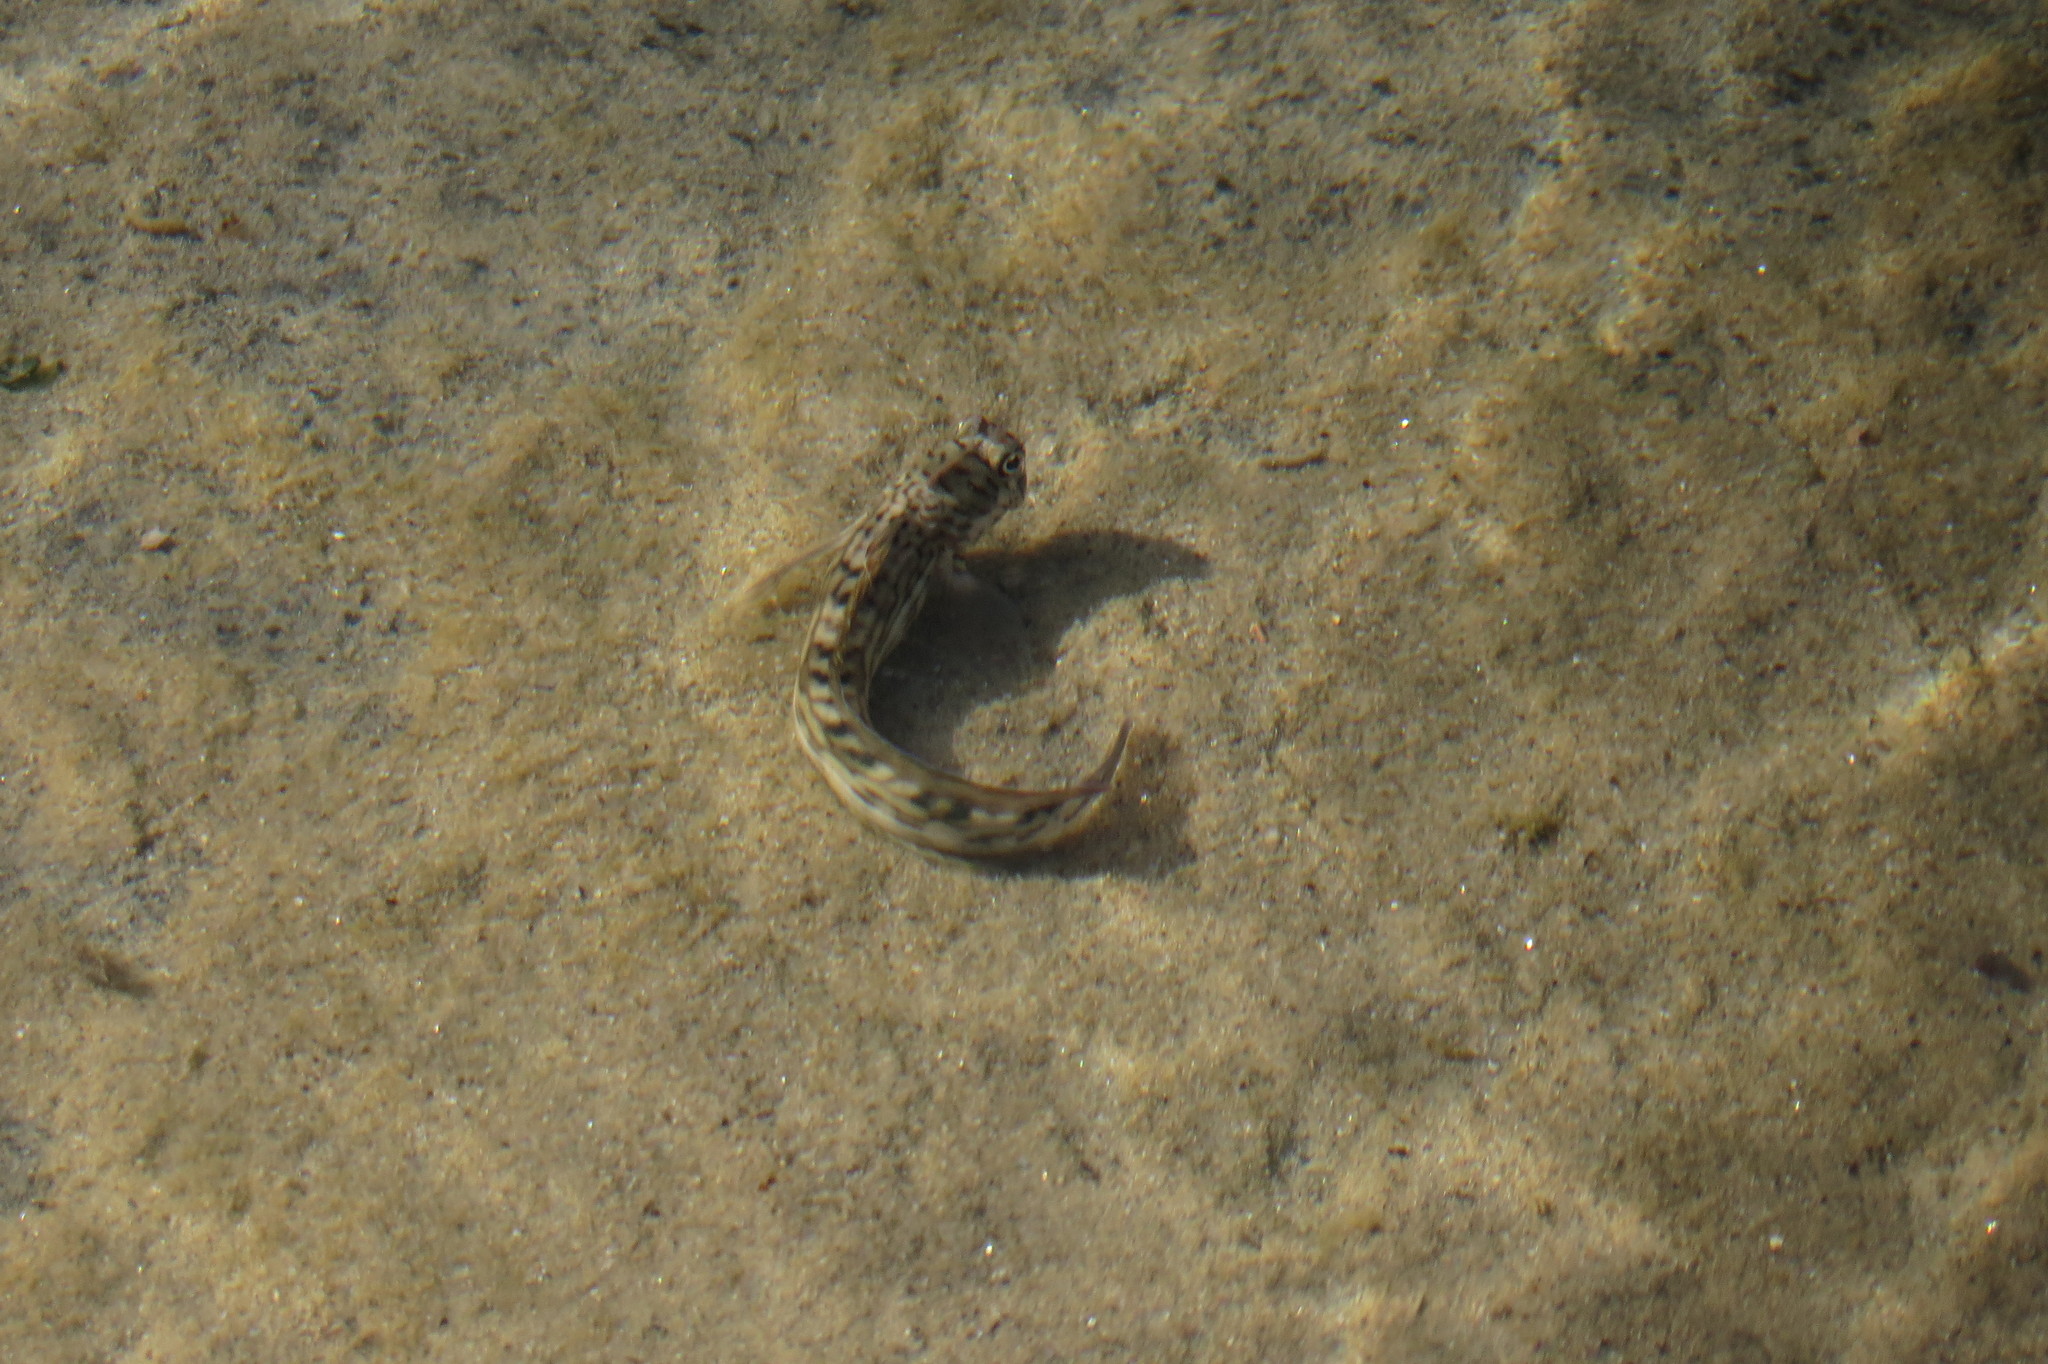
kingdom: Animalia
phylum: Chordata
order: Perciformes
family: Blenniidae
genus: Istiblennius
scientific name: Istiblennius lineatus
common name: Black-lined blenny
